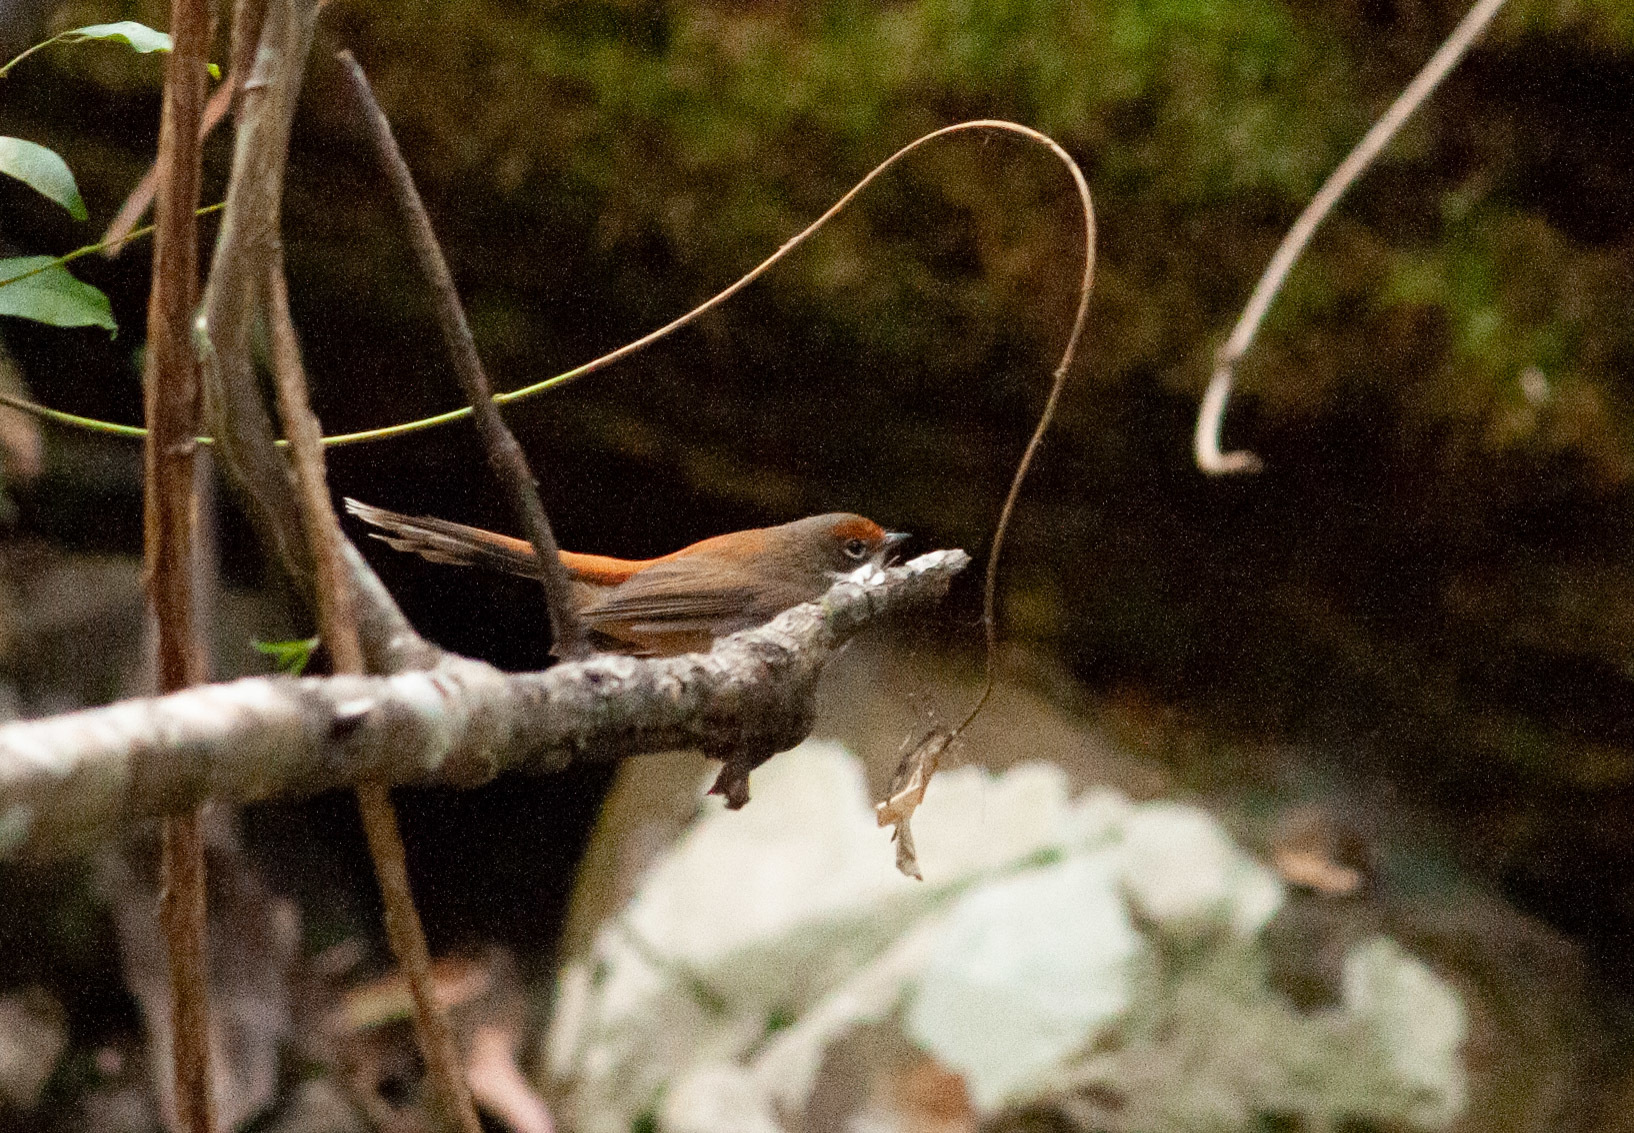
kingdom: Animalia
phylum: Chordata
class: Aves
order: Passeriformes
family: Rhipiduridae
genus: Rhipidura
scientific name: Rhipidura rufifrons
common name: Rufous fantail
